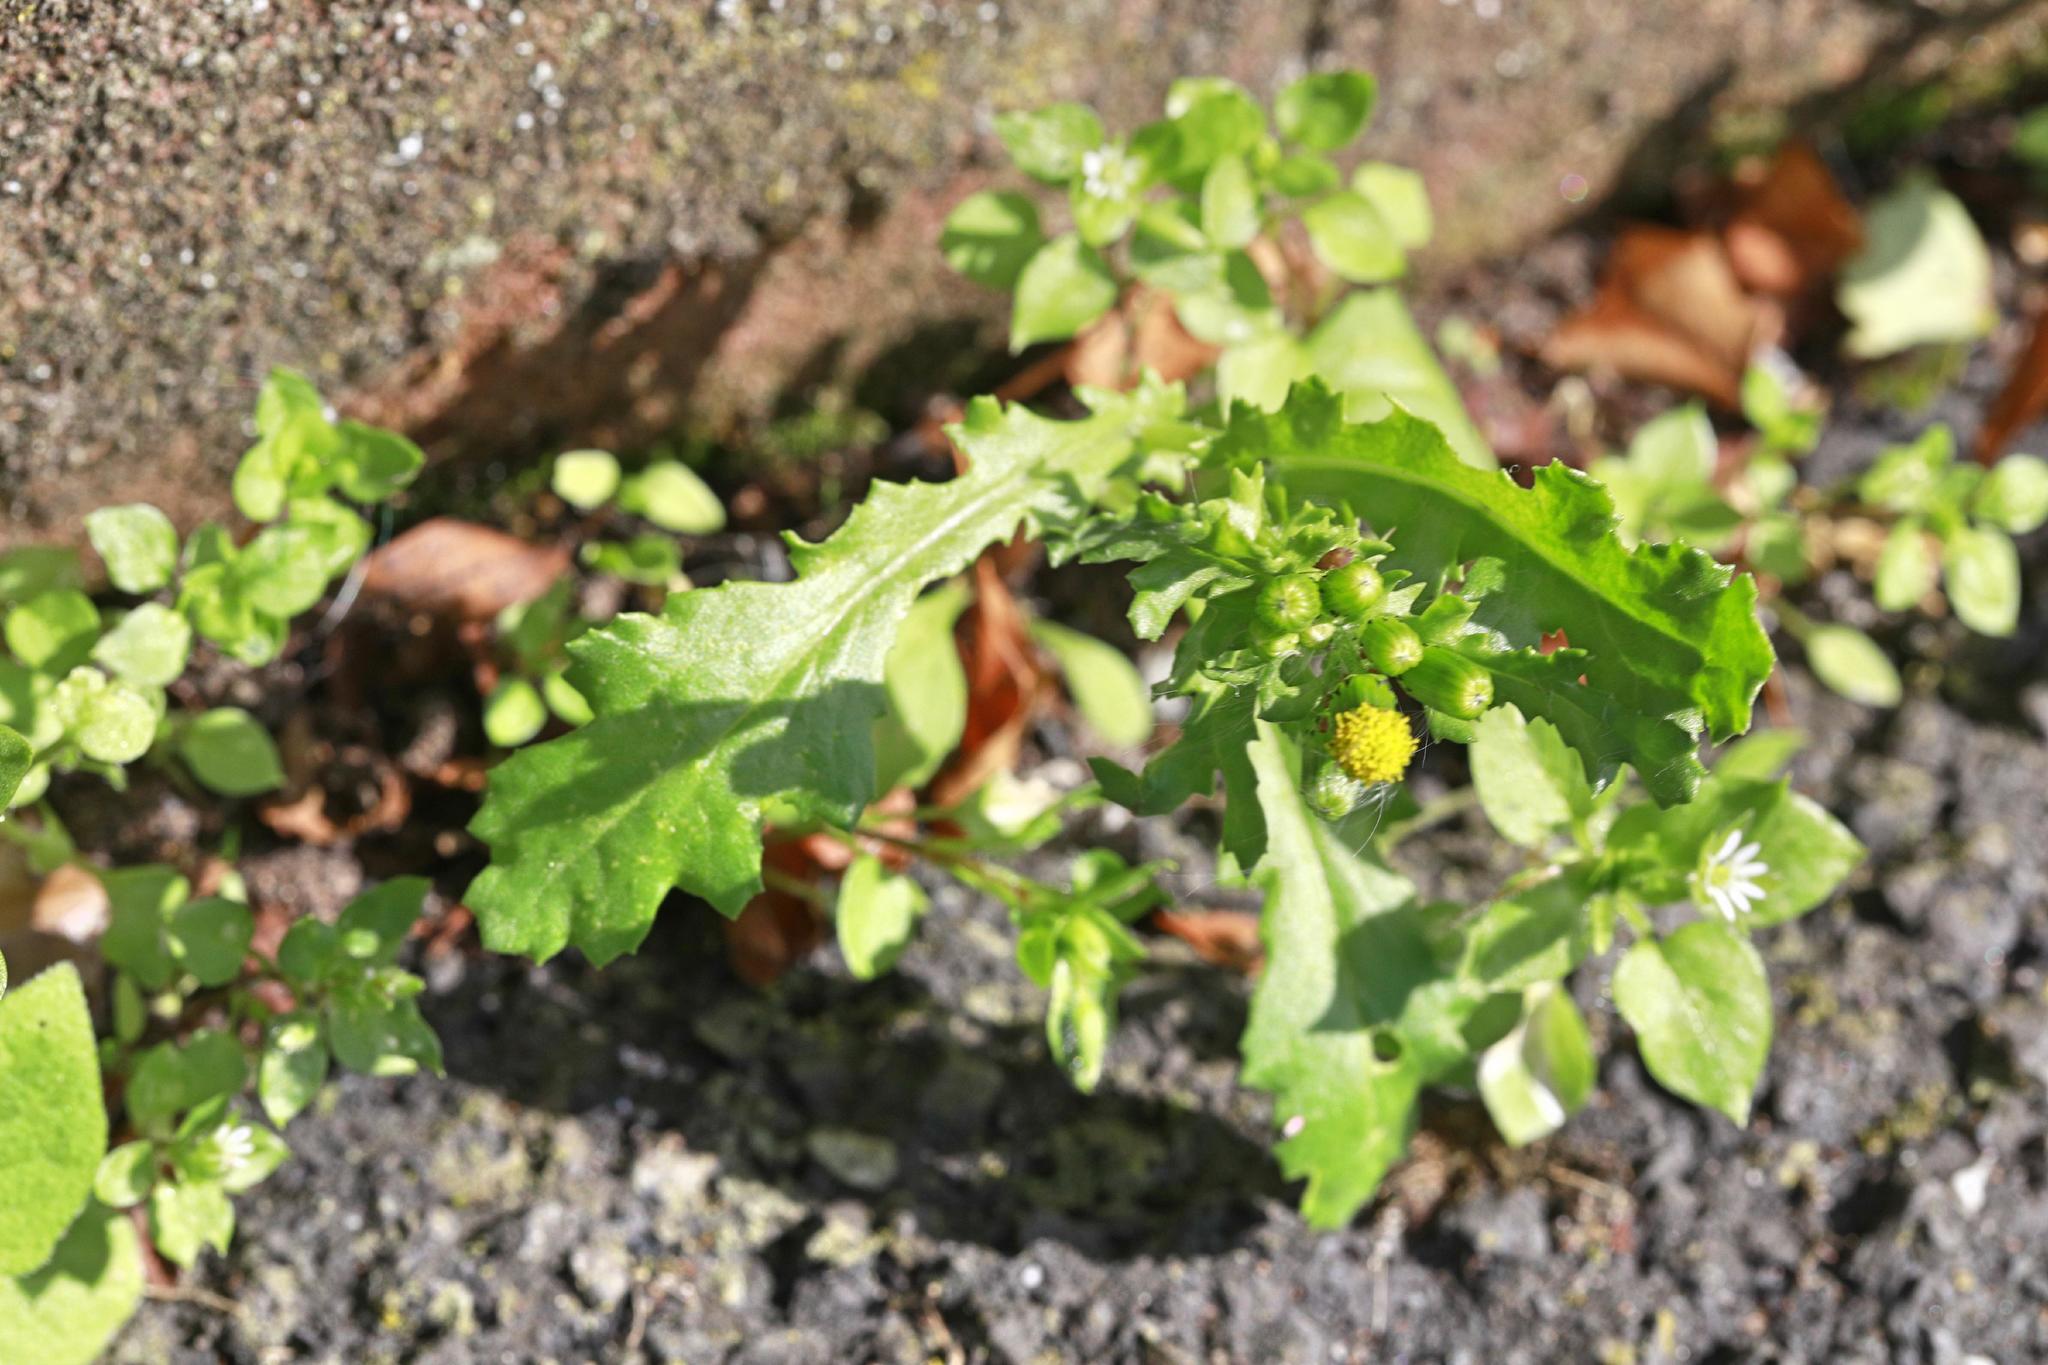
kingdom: Plantae
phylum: Tracheophyta
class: Magnoliopsida
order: Asterales
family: Asteraceae
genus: Senecio
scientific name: Senecio vulgaris
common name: Old-man-in-the-spring
